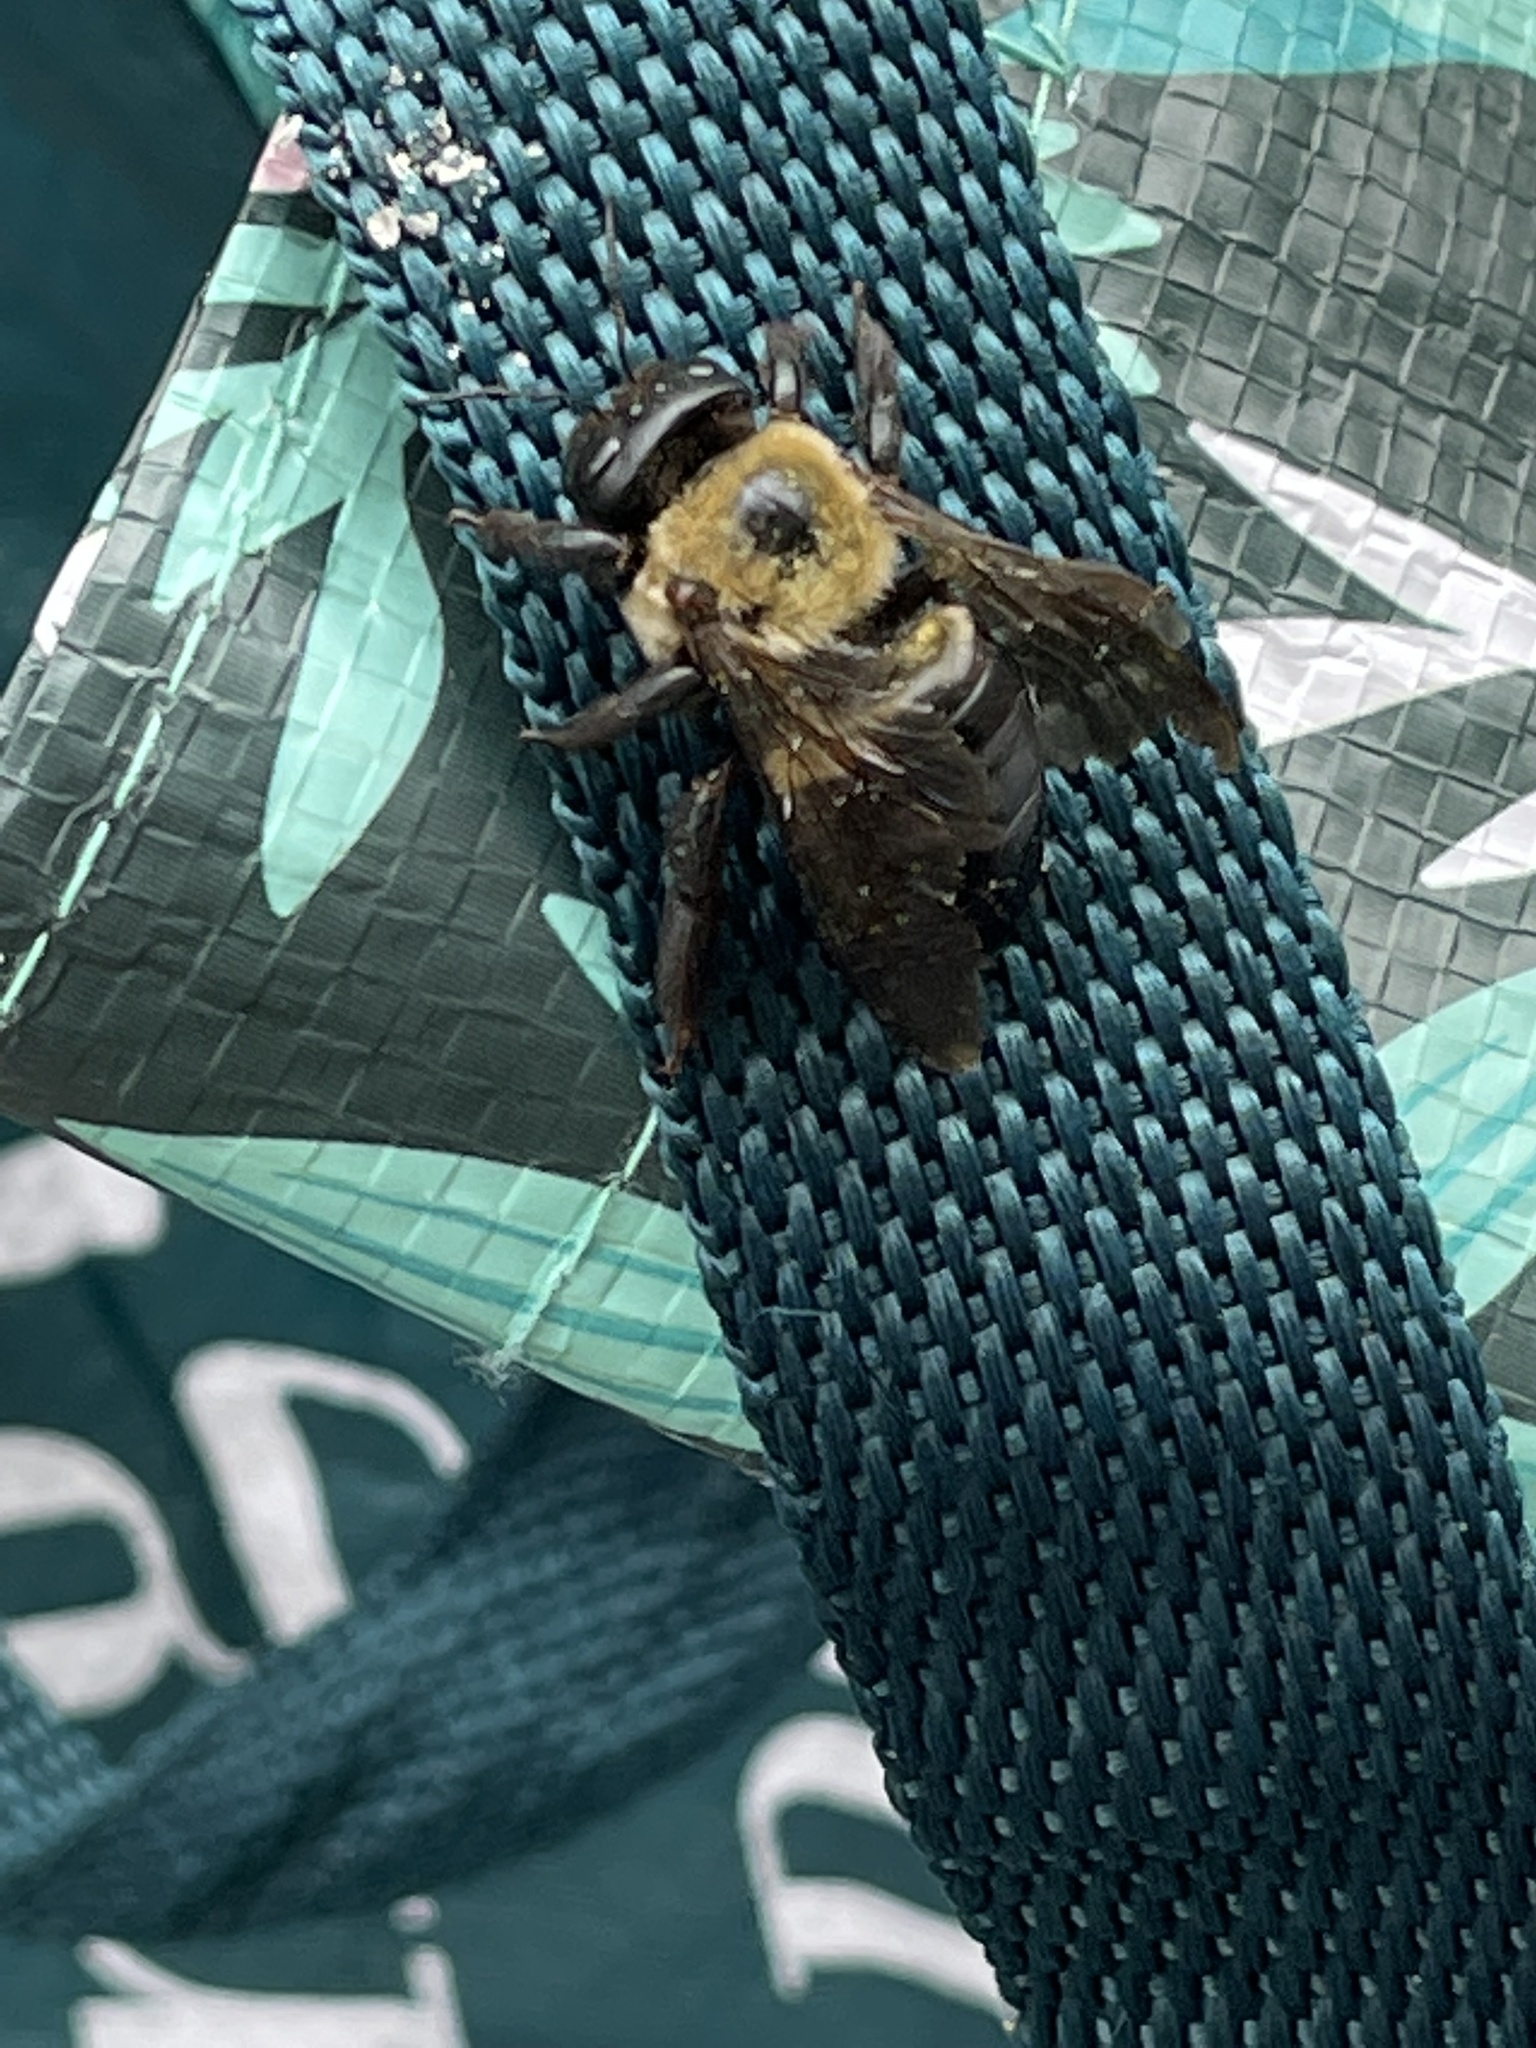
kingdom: Animalia
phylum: Arthropoda
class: Insecta
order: Hymenoptera
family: Apidae
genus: Xylocopa
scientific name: Xylocopa virginica
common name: Carpenter bee
